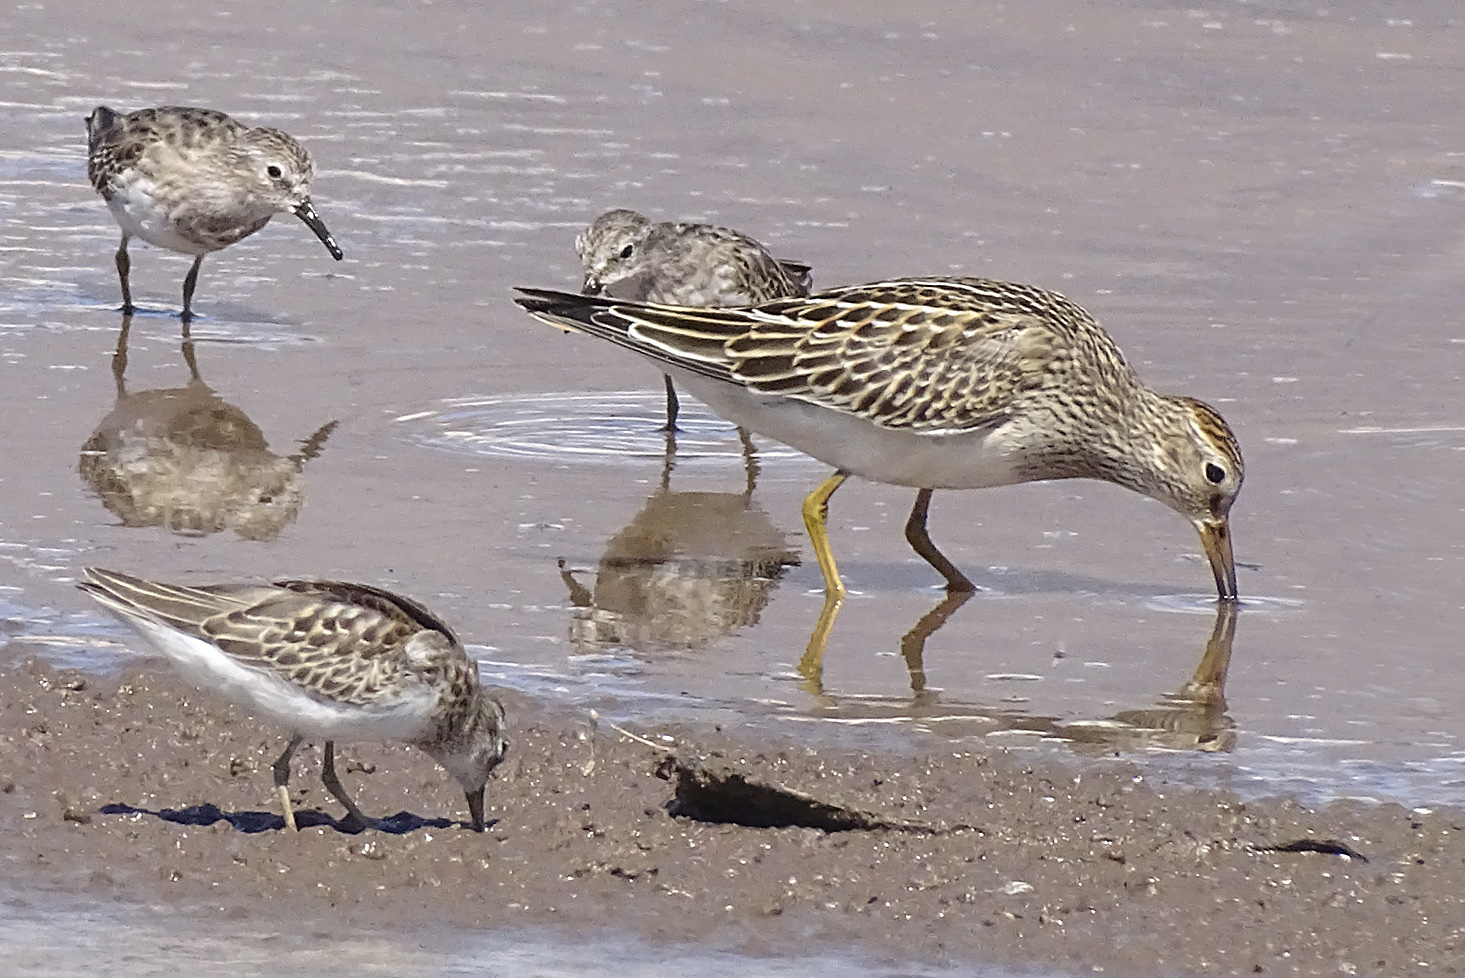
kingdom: Animalia
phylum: Chordata
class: Aves
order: Charadriiformes
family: Scolopacidae
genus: Calidris
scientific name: Calidris melanotos
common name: Pectoral sandpiper
